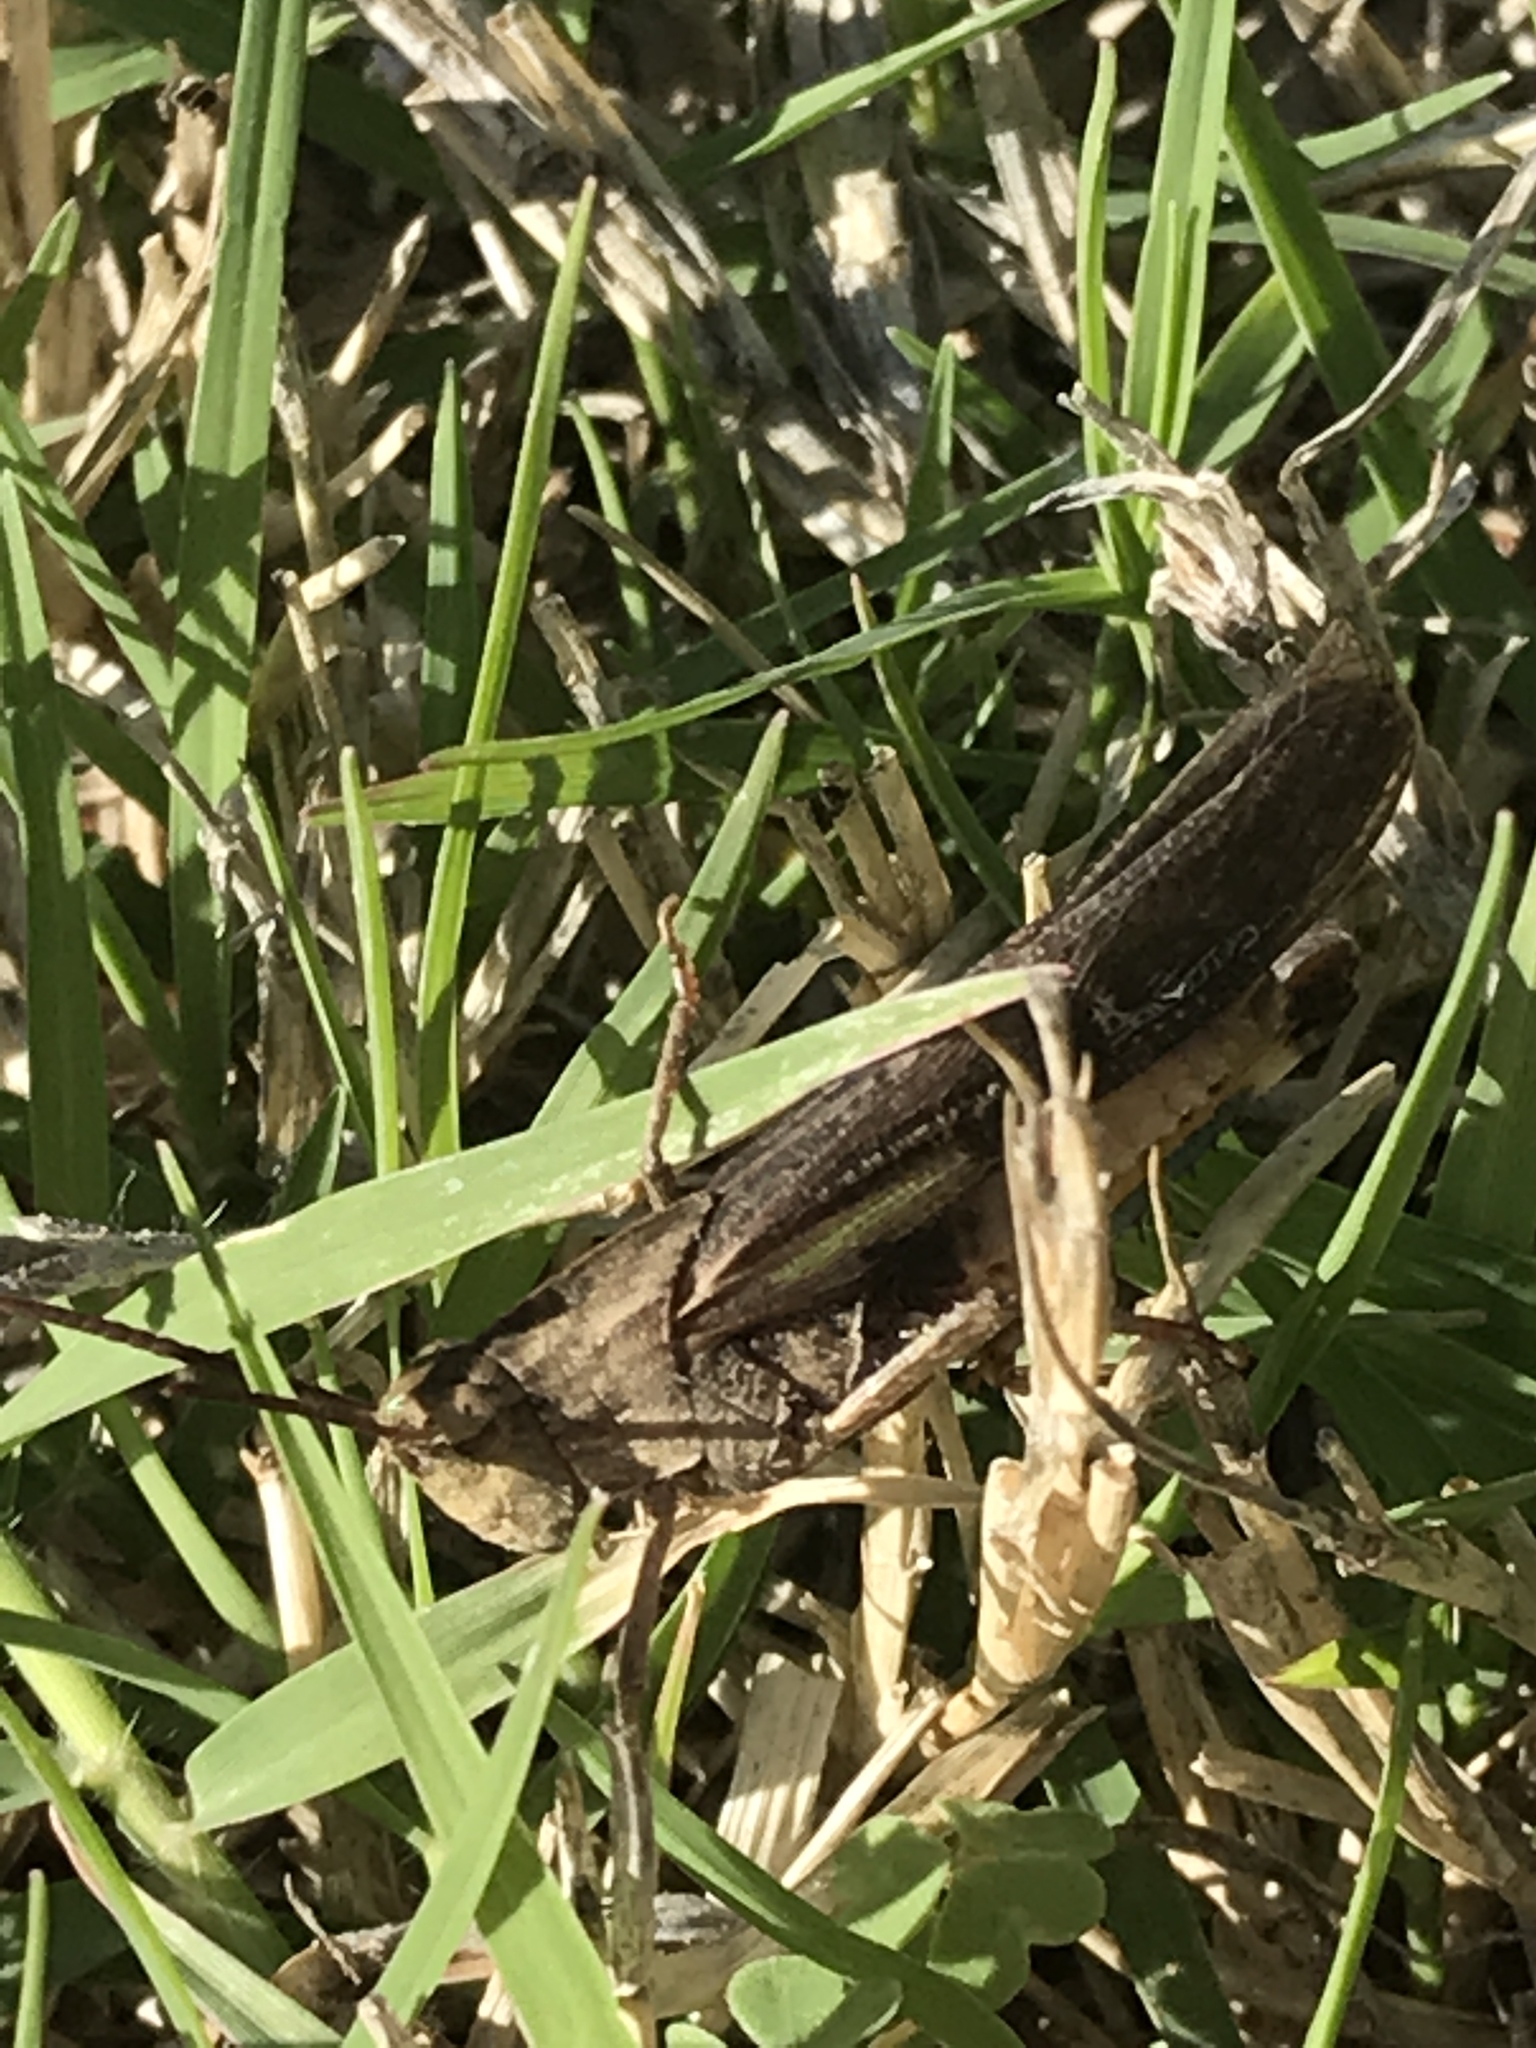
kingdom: Animalia
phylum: Arthropoda
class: Insecta
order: Orthoptera
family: Acrididae
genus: Chortophaga
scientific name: Chortophaga viridifasciata
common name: Green-striped grasshopper
